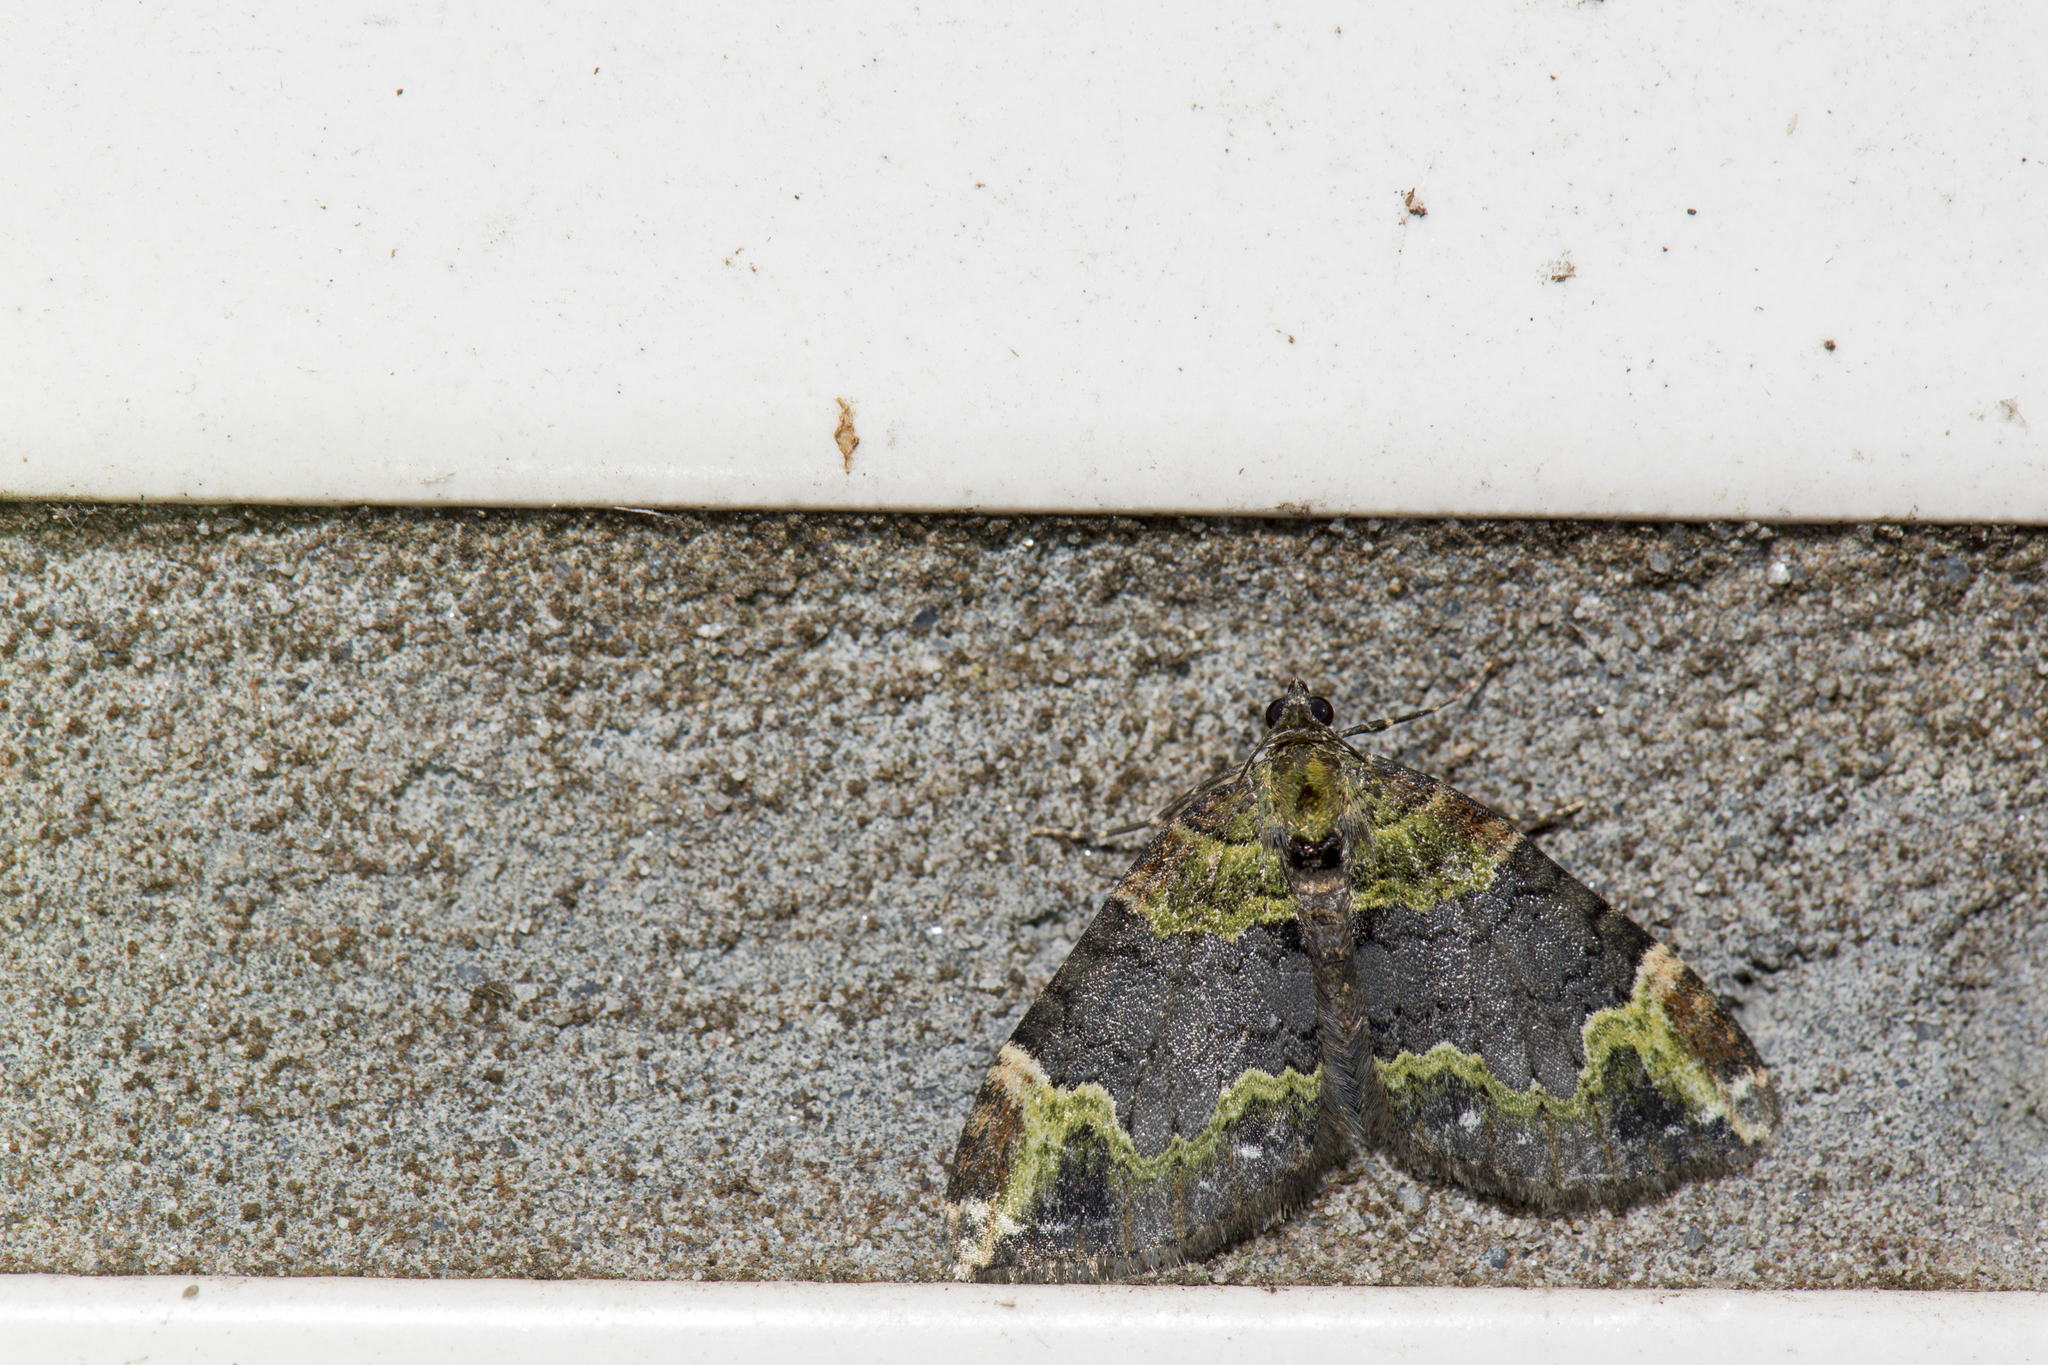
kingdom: Animalia
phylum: Arthropoda
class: Insecta
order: Lepidoptera
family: Geometridae
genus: Xanthorhoe
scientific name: Xanthorhoe cybele
